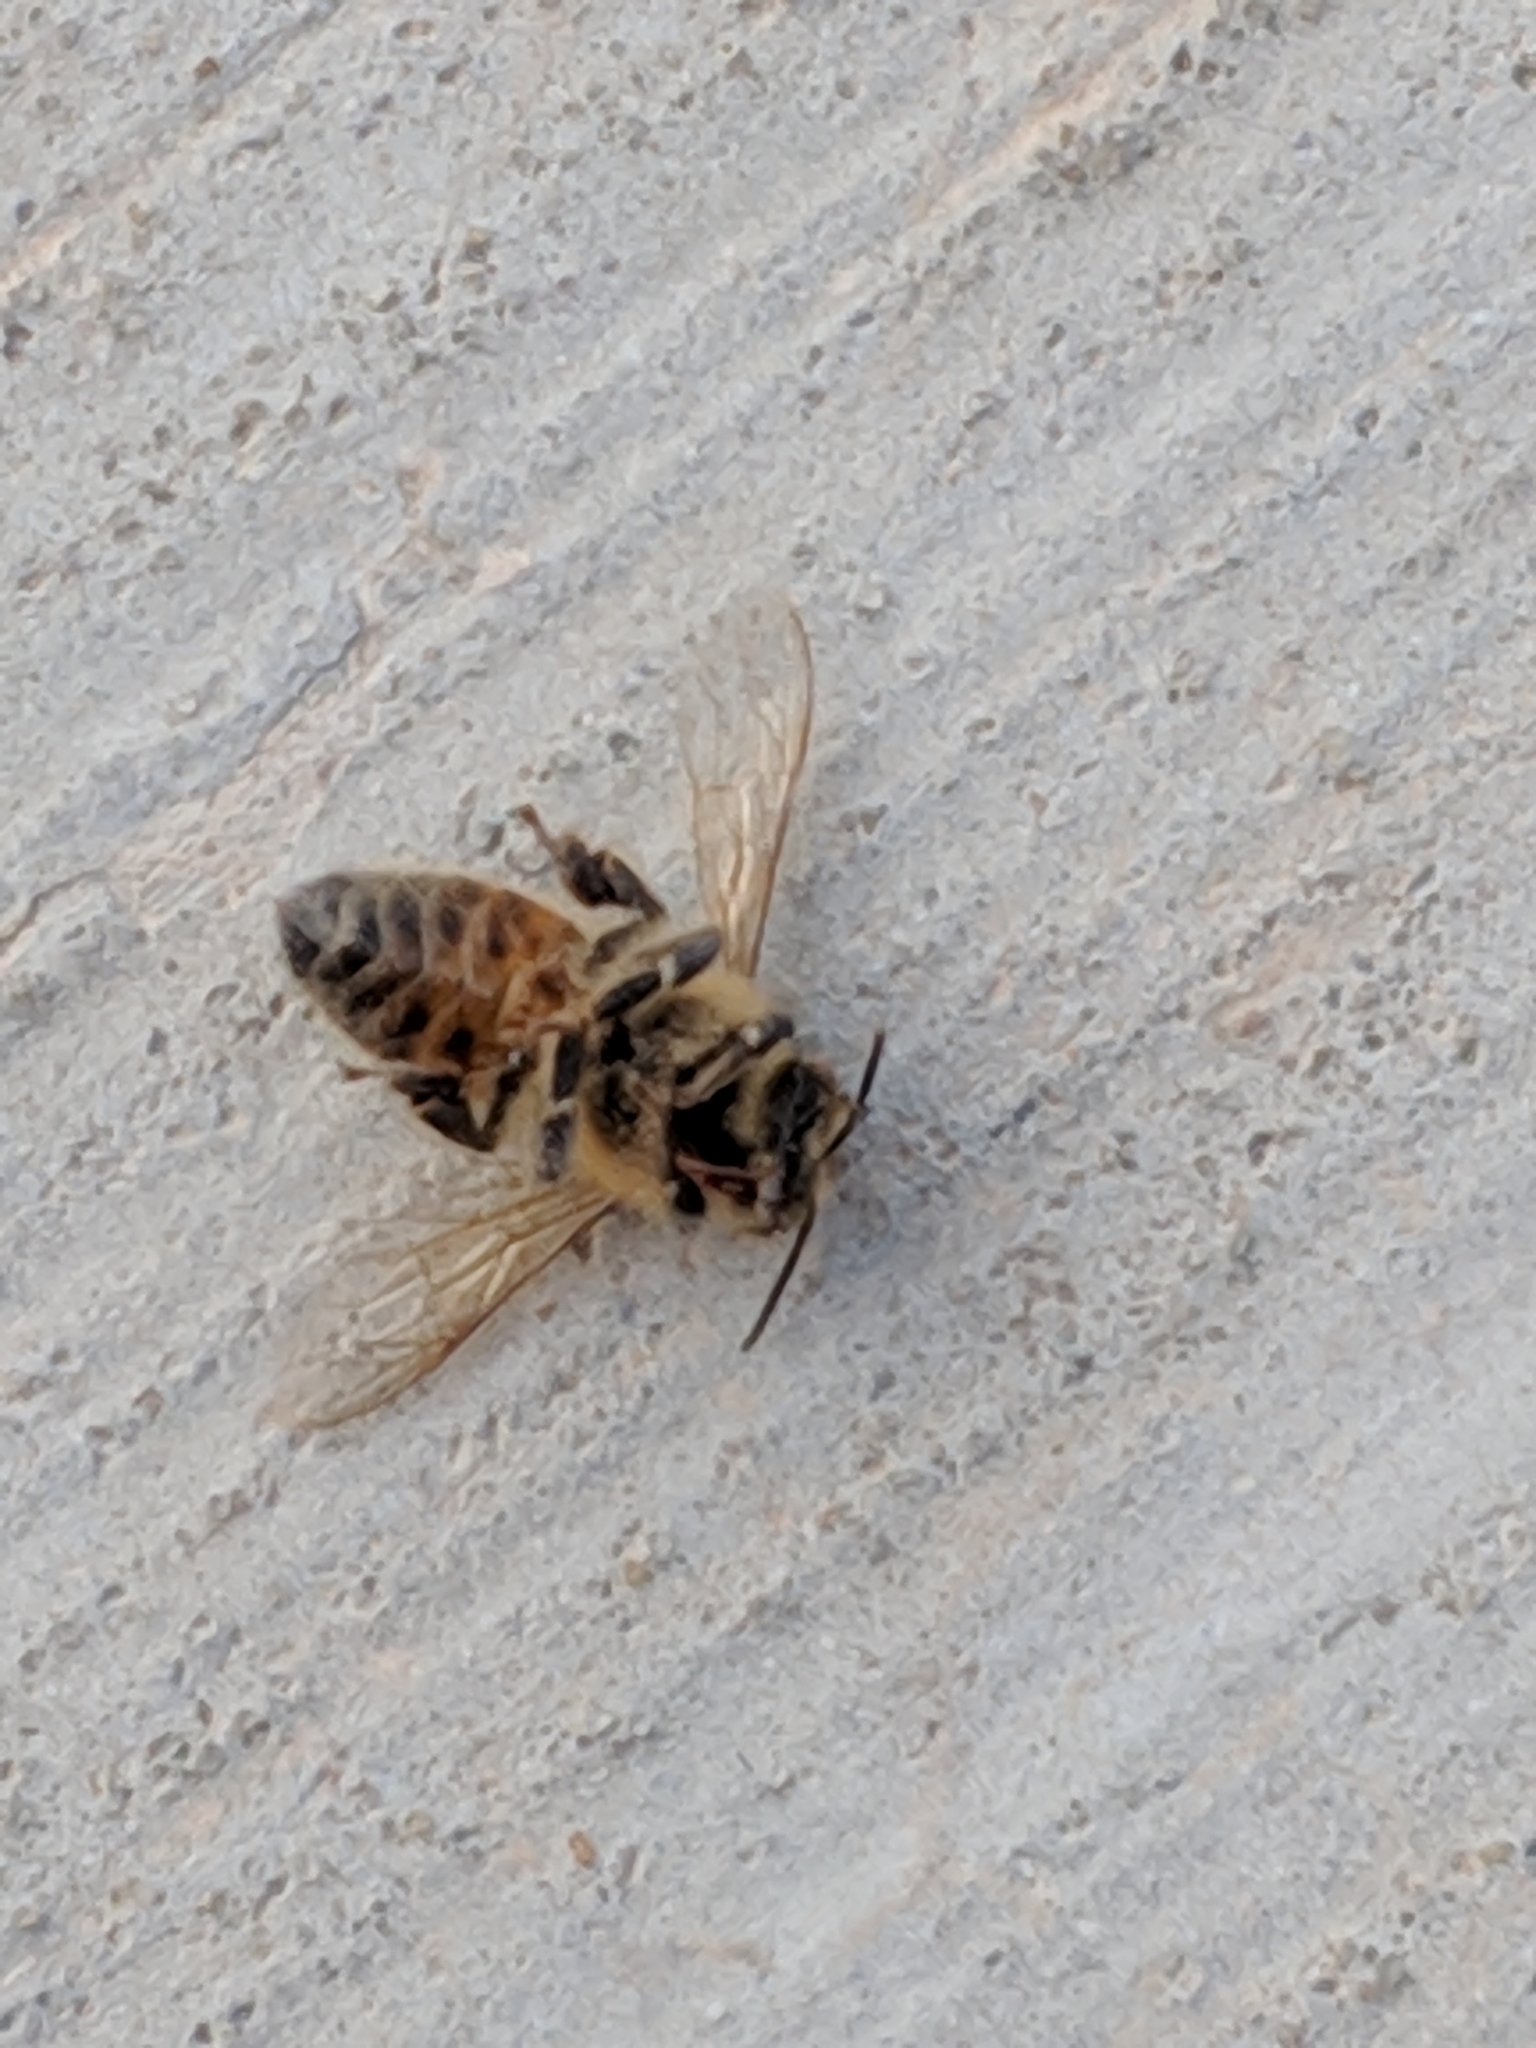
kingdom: Animalia
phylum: Arthropoda
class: Insecta
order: Hymenoptera
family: Apidae
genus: Apis
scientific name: Apis mellifera
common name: Honey bee
